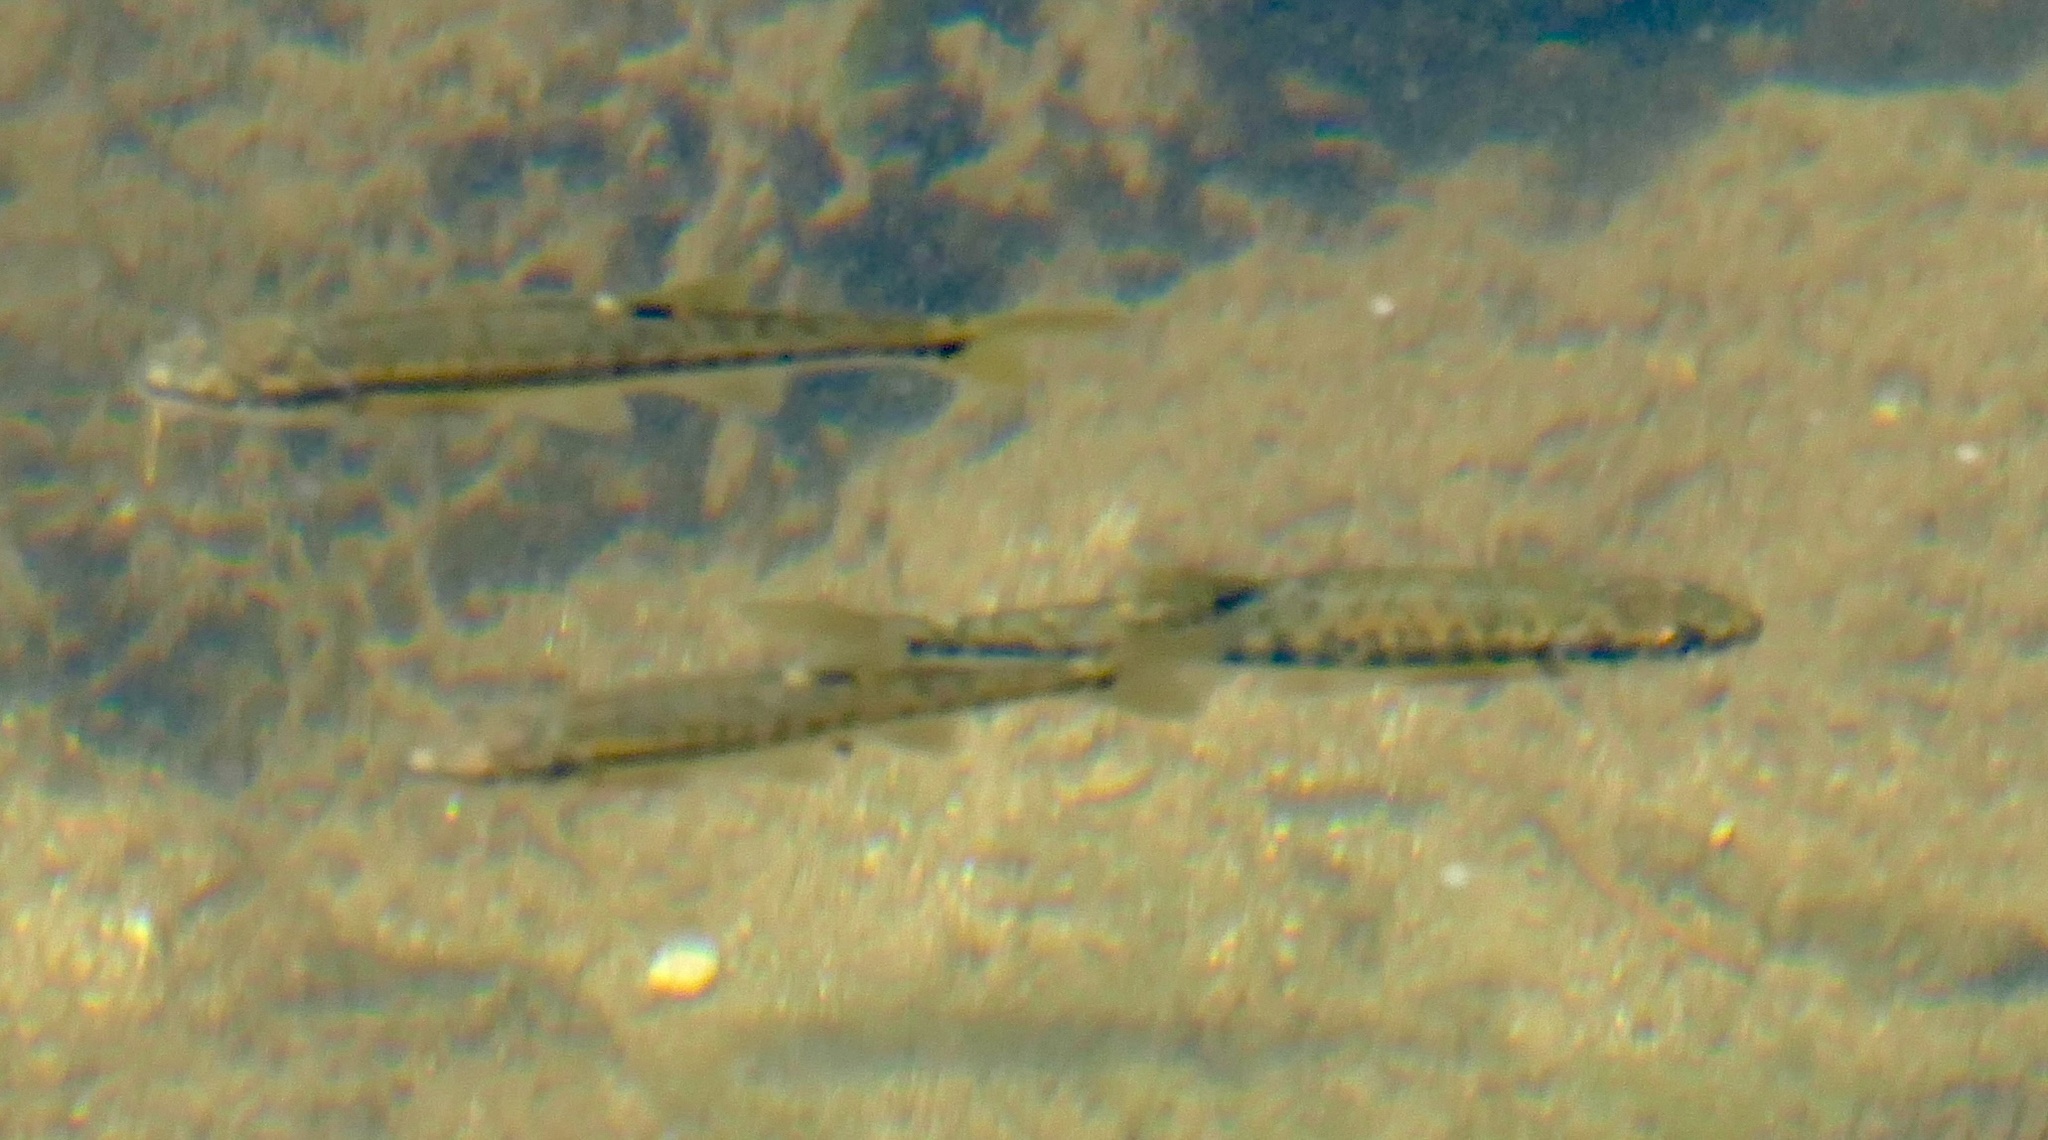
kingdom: Animalia
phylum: Chordata
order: Cypriniformes
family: Cyprinidae
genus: Phoxinus
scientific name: Phoxinus phoxinus
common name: Minnow
